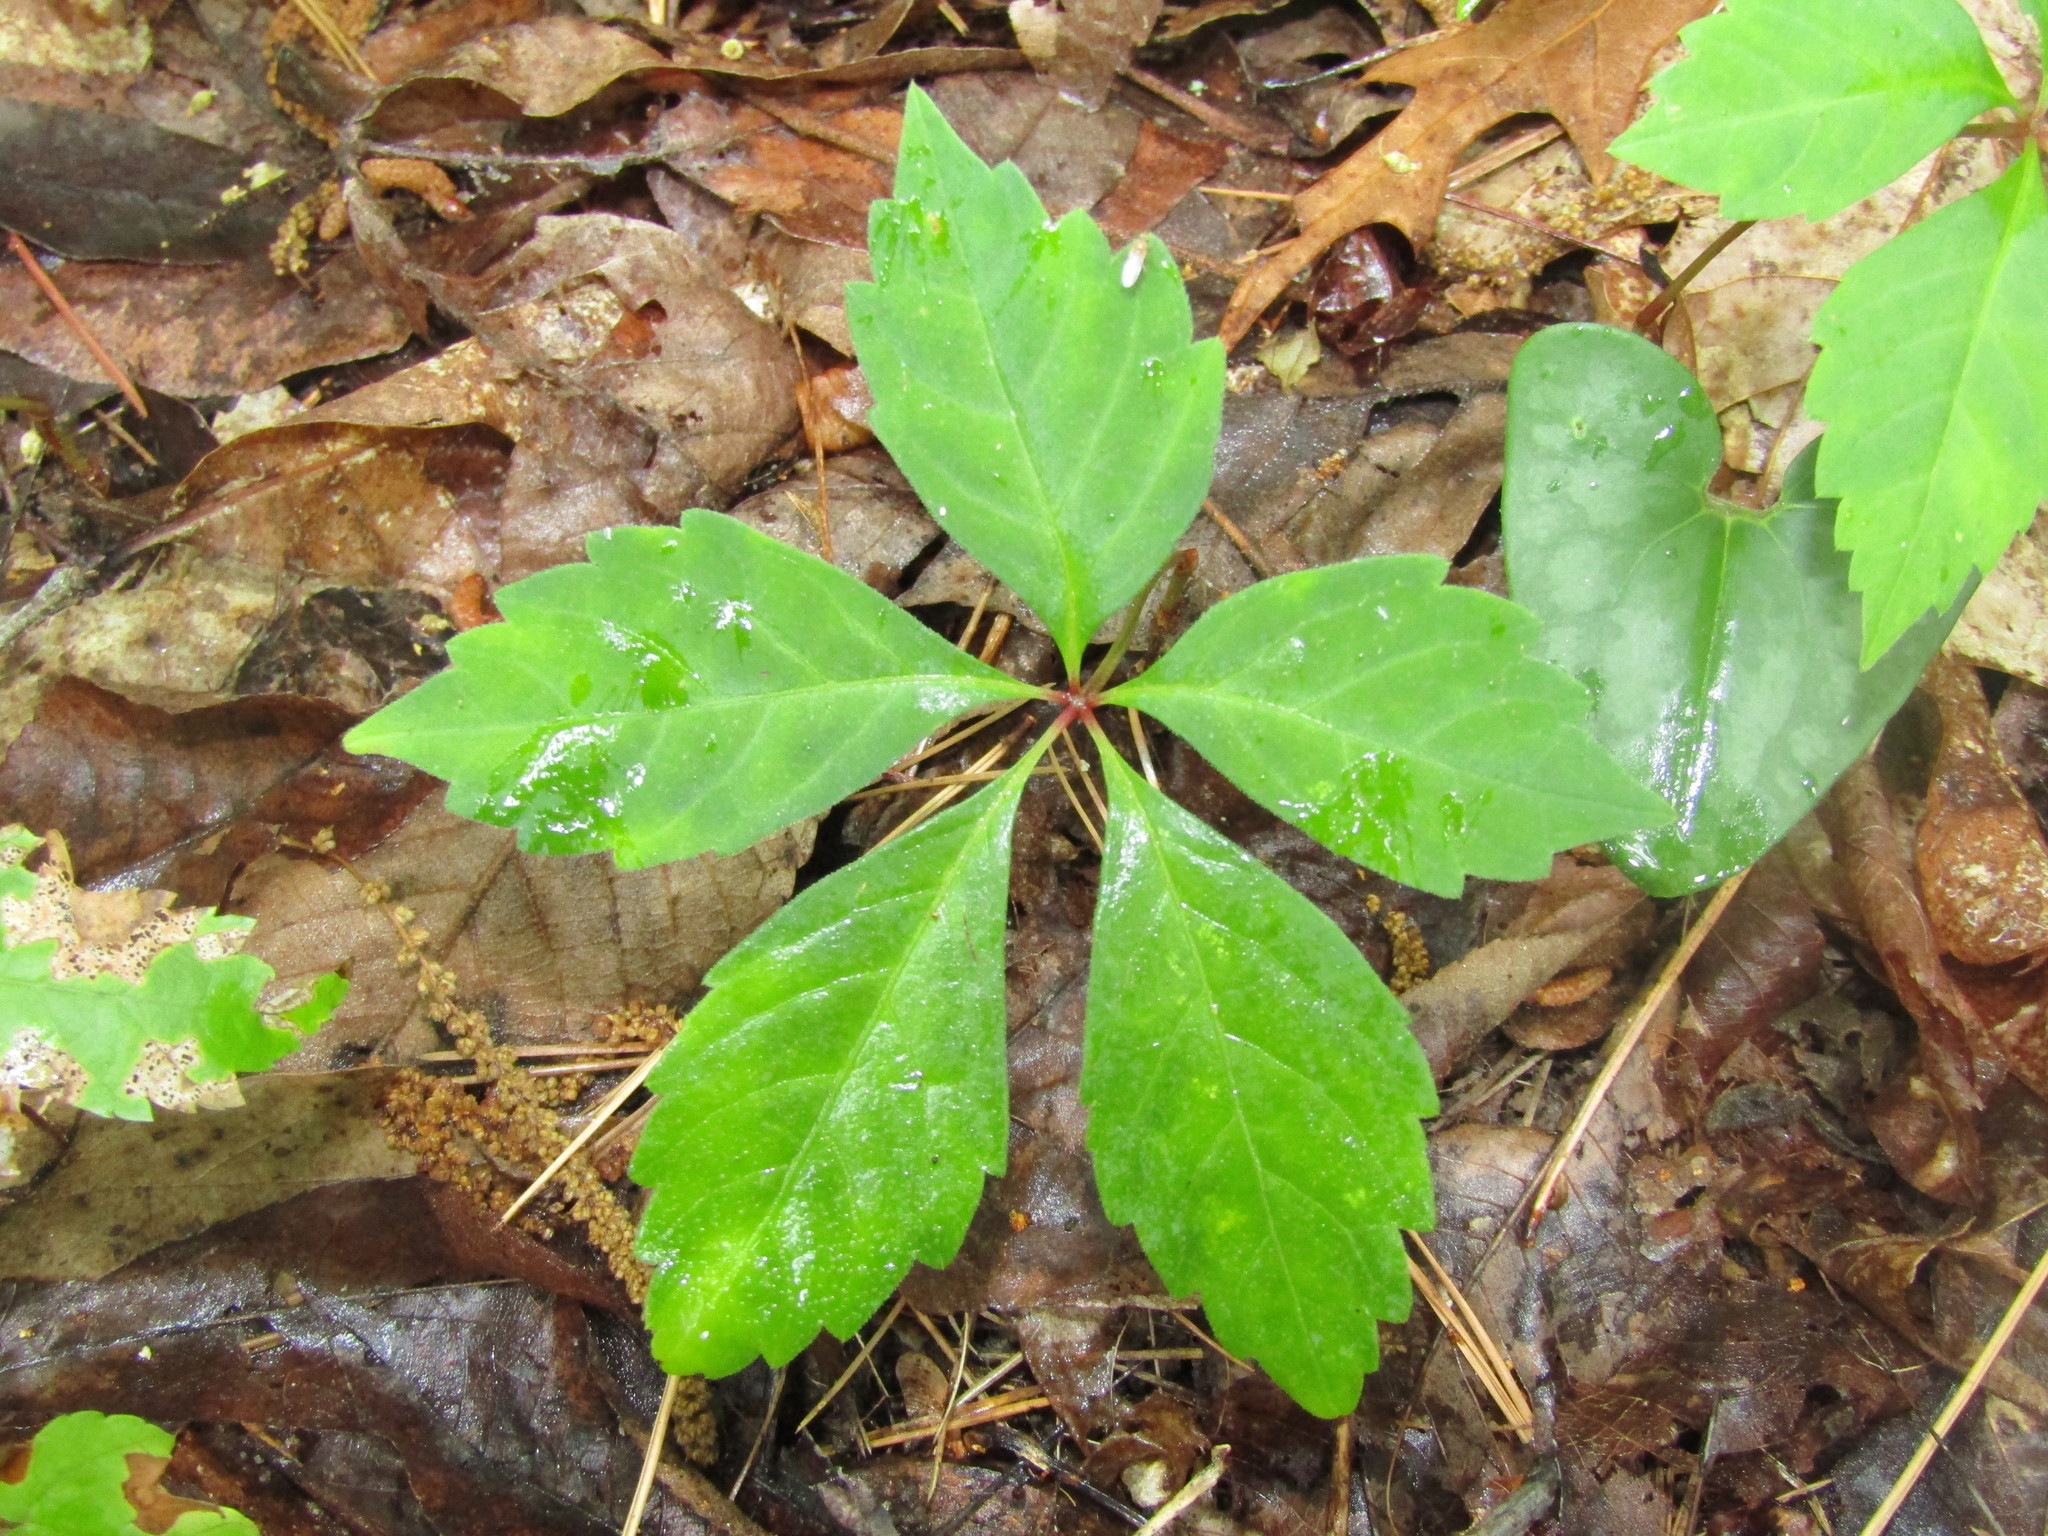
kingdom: Plantae
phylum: Tracheophyta
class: Magnoliopsida
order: Vitales
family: Vitaceae
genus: Parthenocissus
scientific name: Parthenocissus quinquefolia
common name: Virginia-creeper
